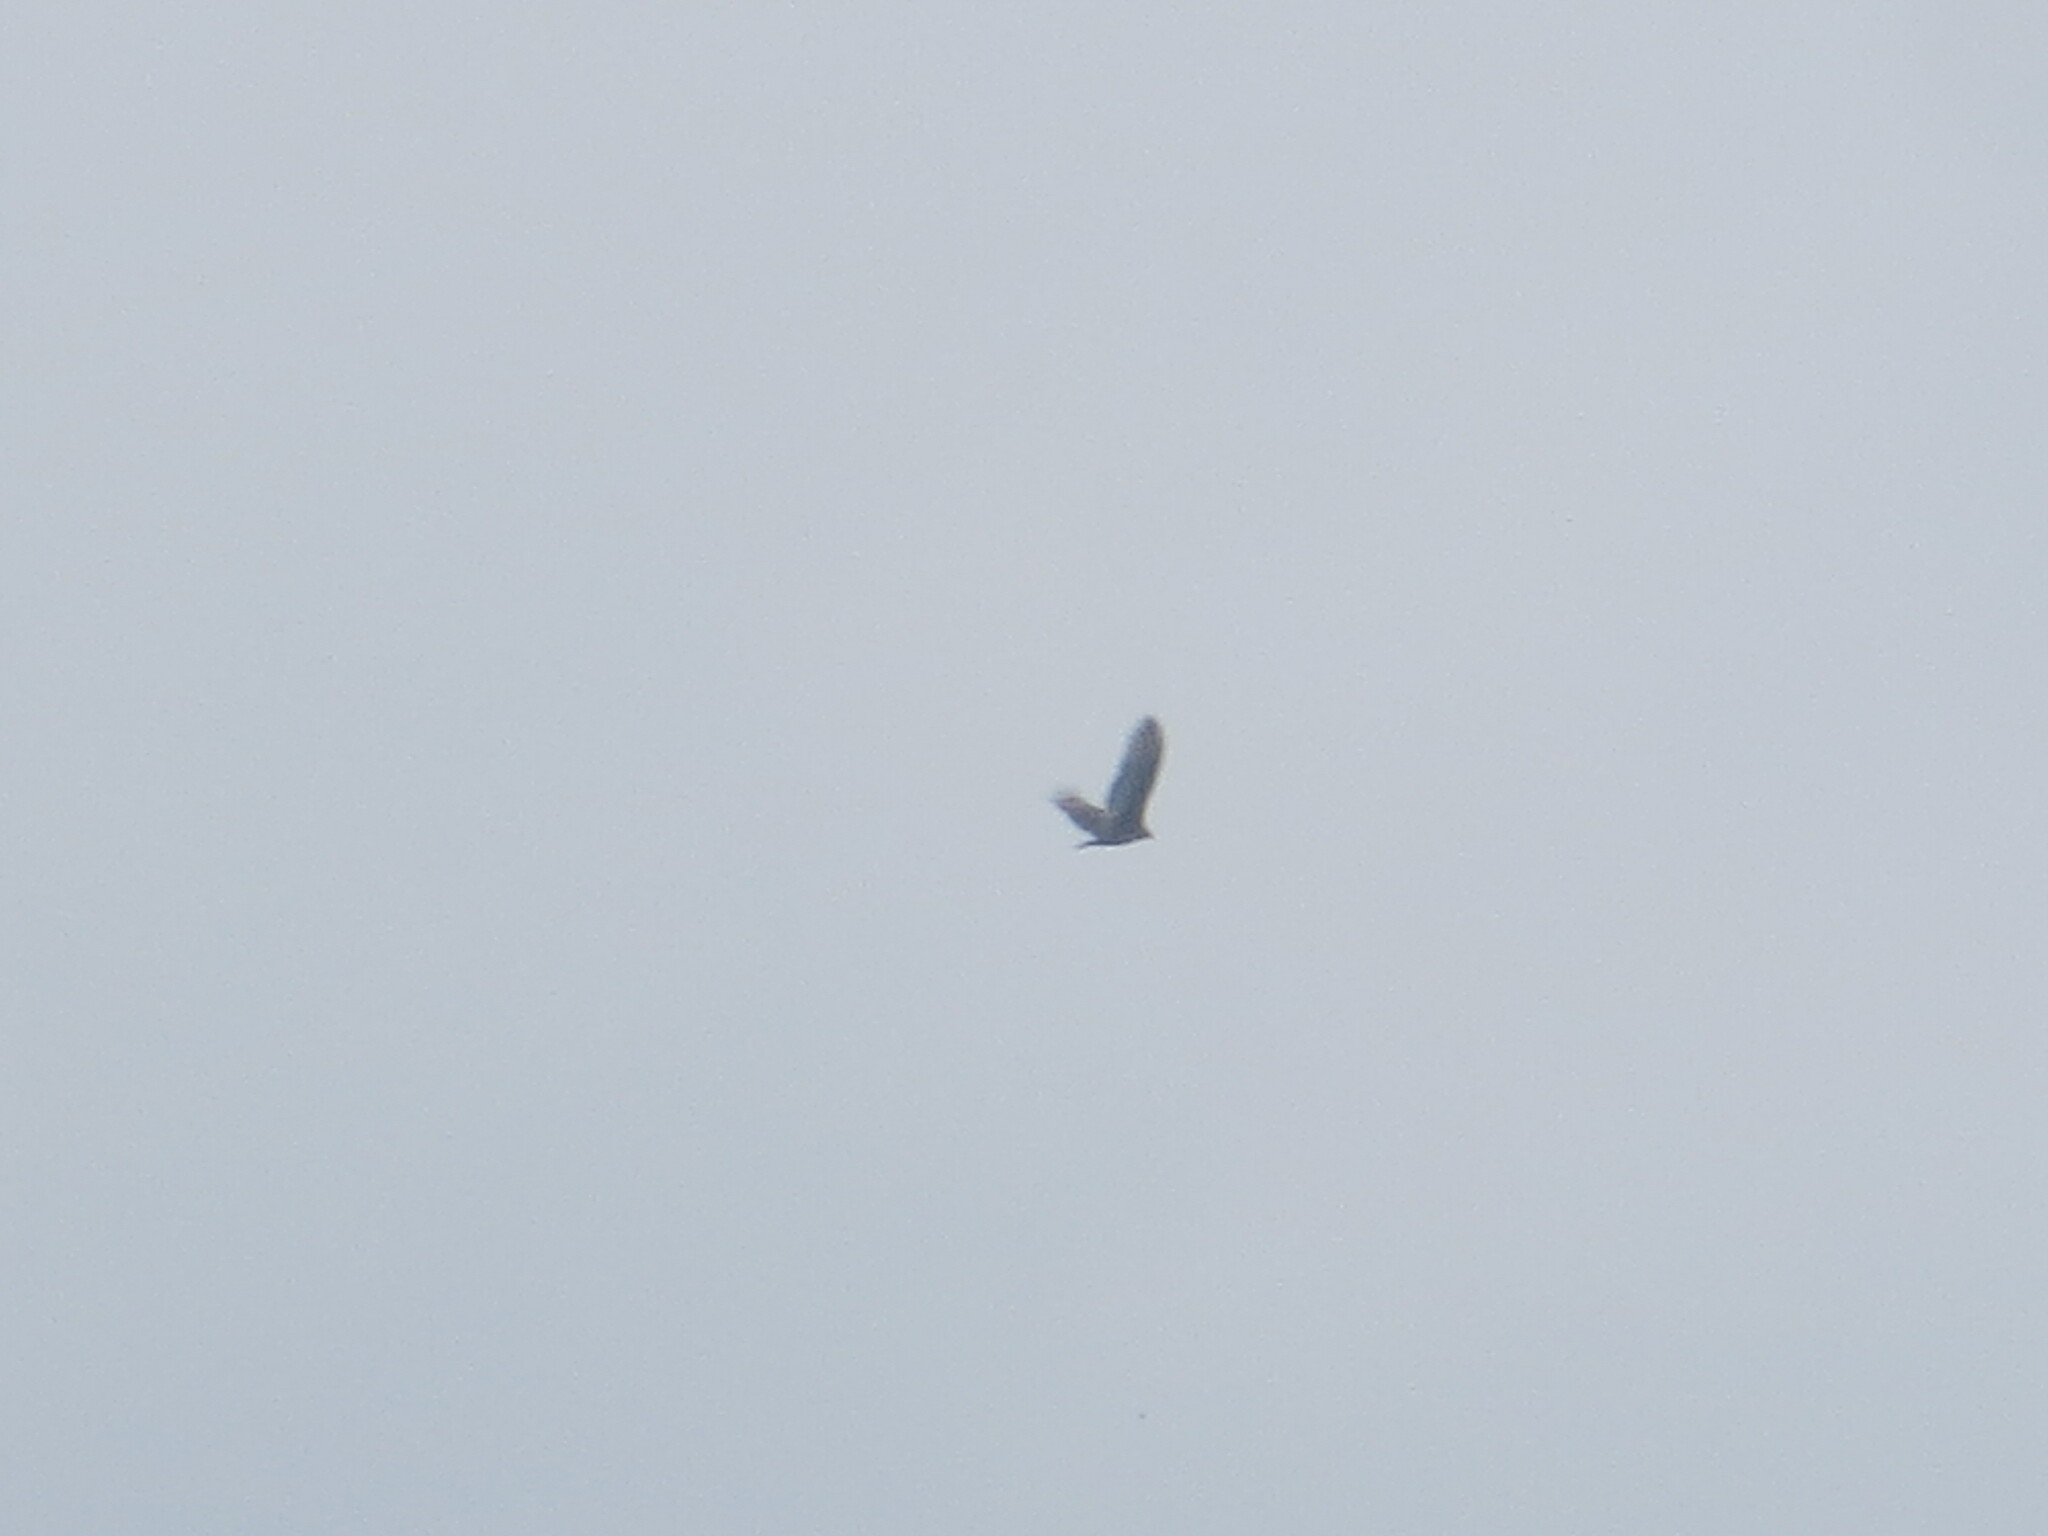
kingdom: Animalia
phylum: Chordata
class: Aves
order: Accipitriformes
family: Cathartidae
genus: Cathartes
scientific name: Cathartes aura
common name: Turkey vulture
